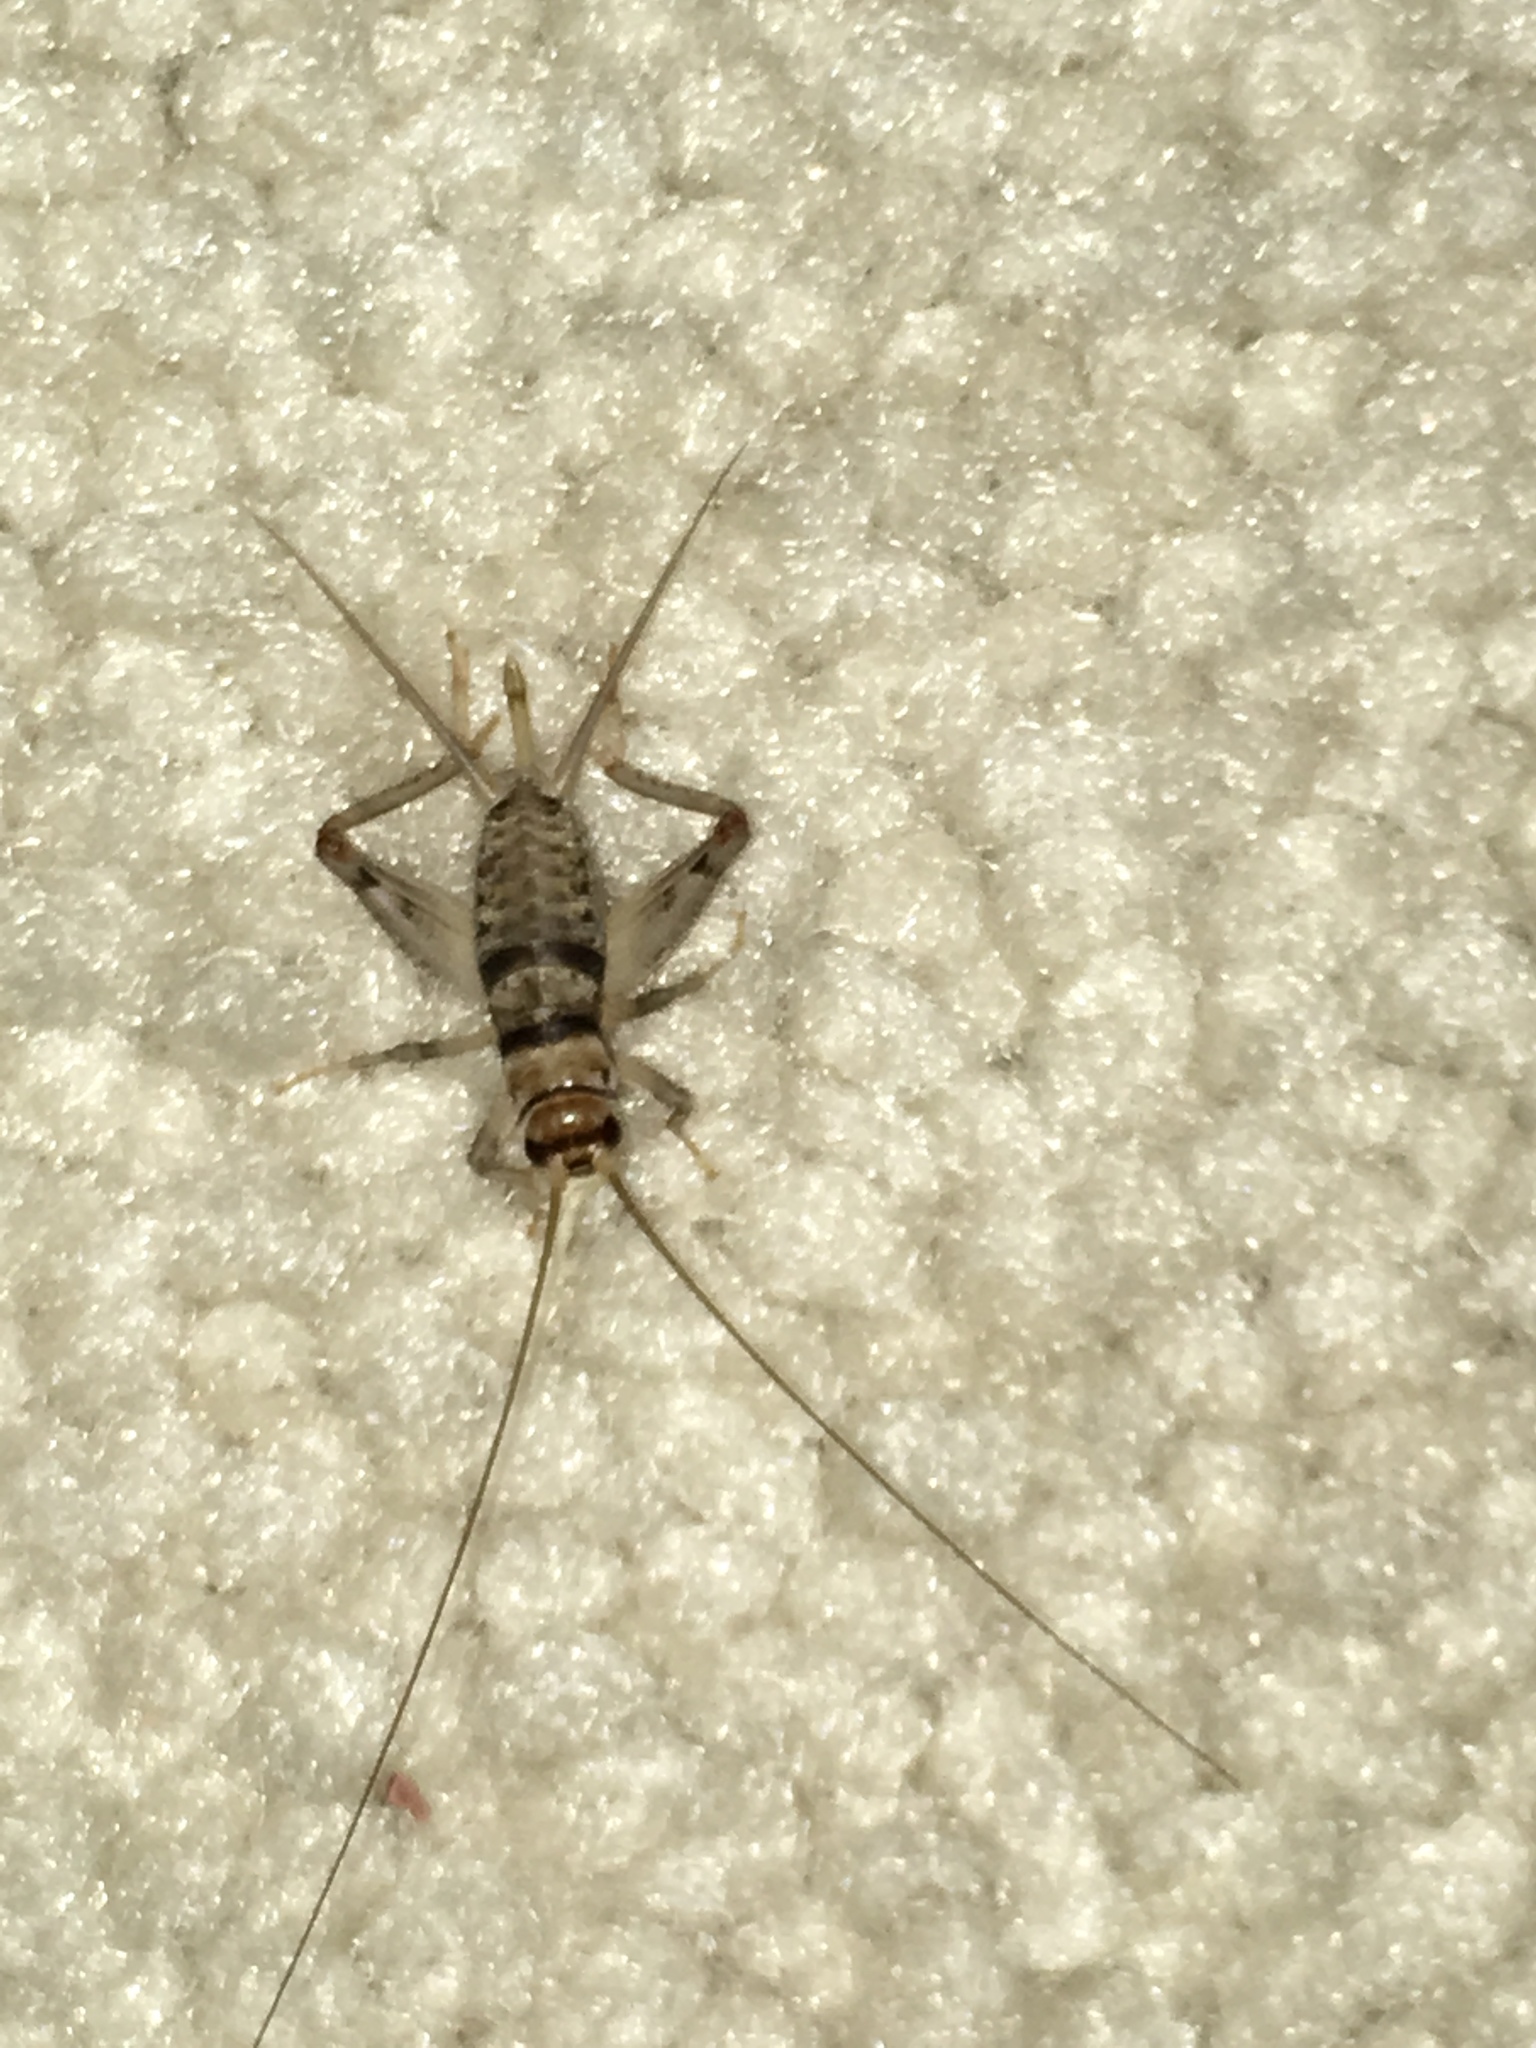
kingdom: Animalia
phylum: Arthropoda
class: Insecta
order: Orthoptera
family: Gryllidae
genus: Gryllodes
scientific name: Gryllodes sigillatus
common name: Tropical house cricket
